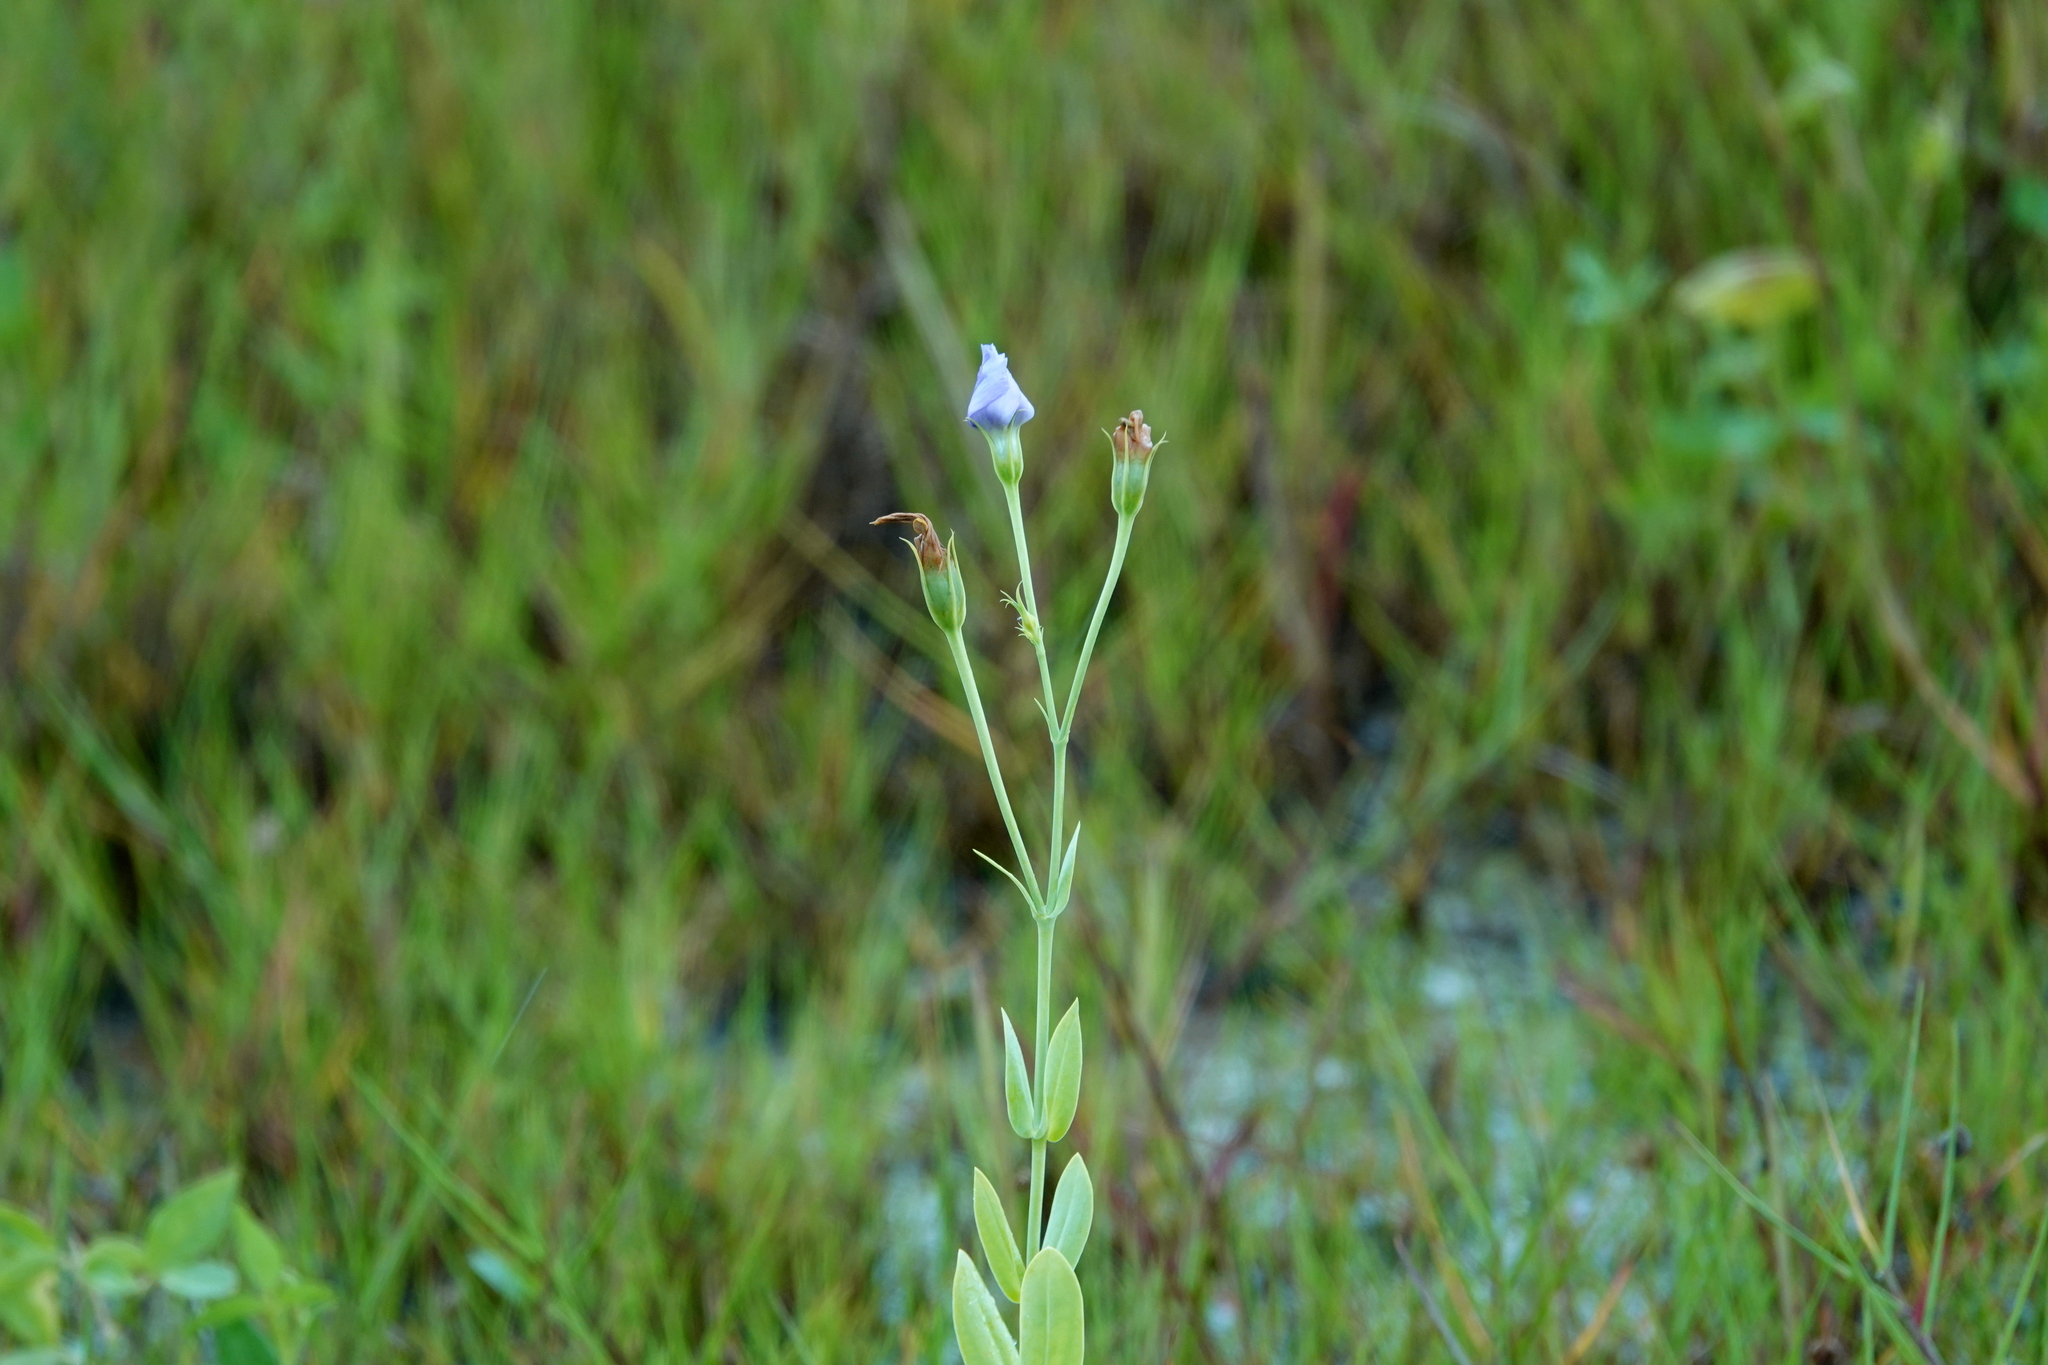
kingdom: Plantae
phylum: Tracheophyta
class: Magnoliopsida
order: Gentianales
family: Gentianaceae
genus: Eustoma
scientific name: Eustoma exaltatum
